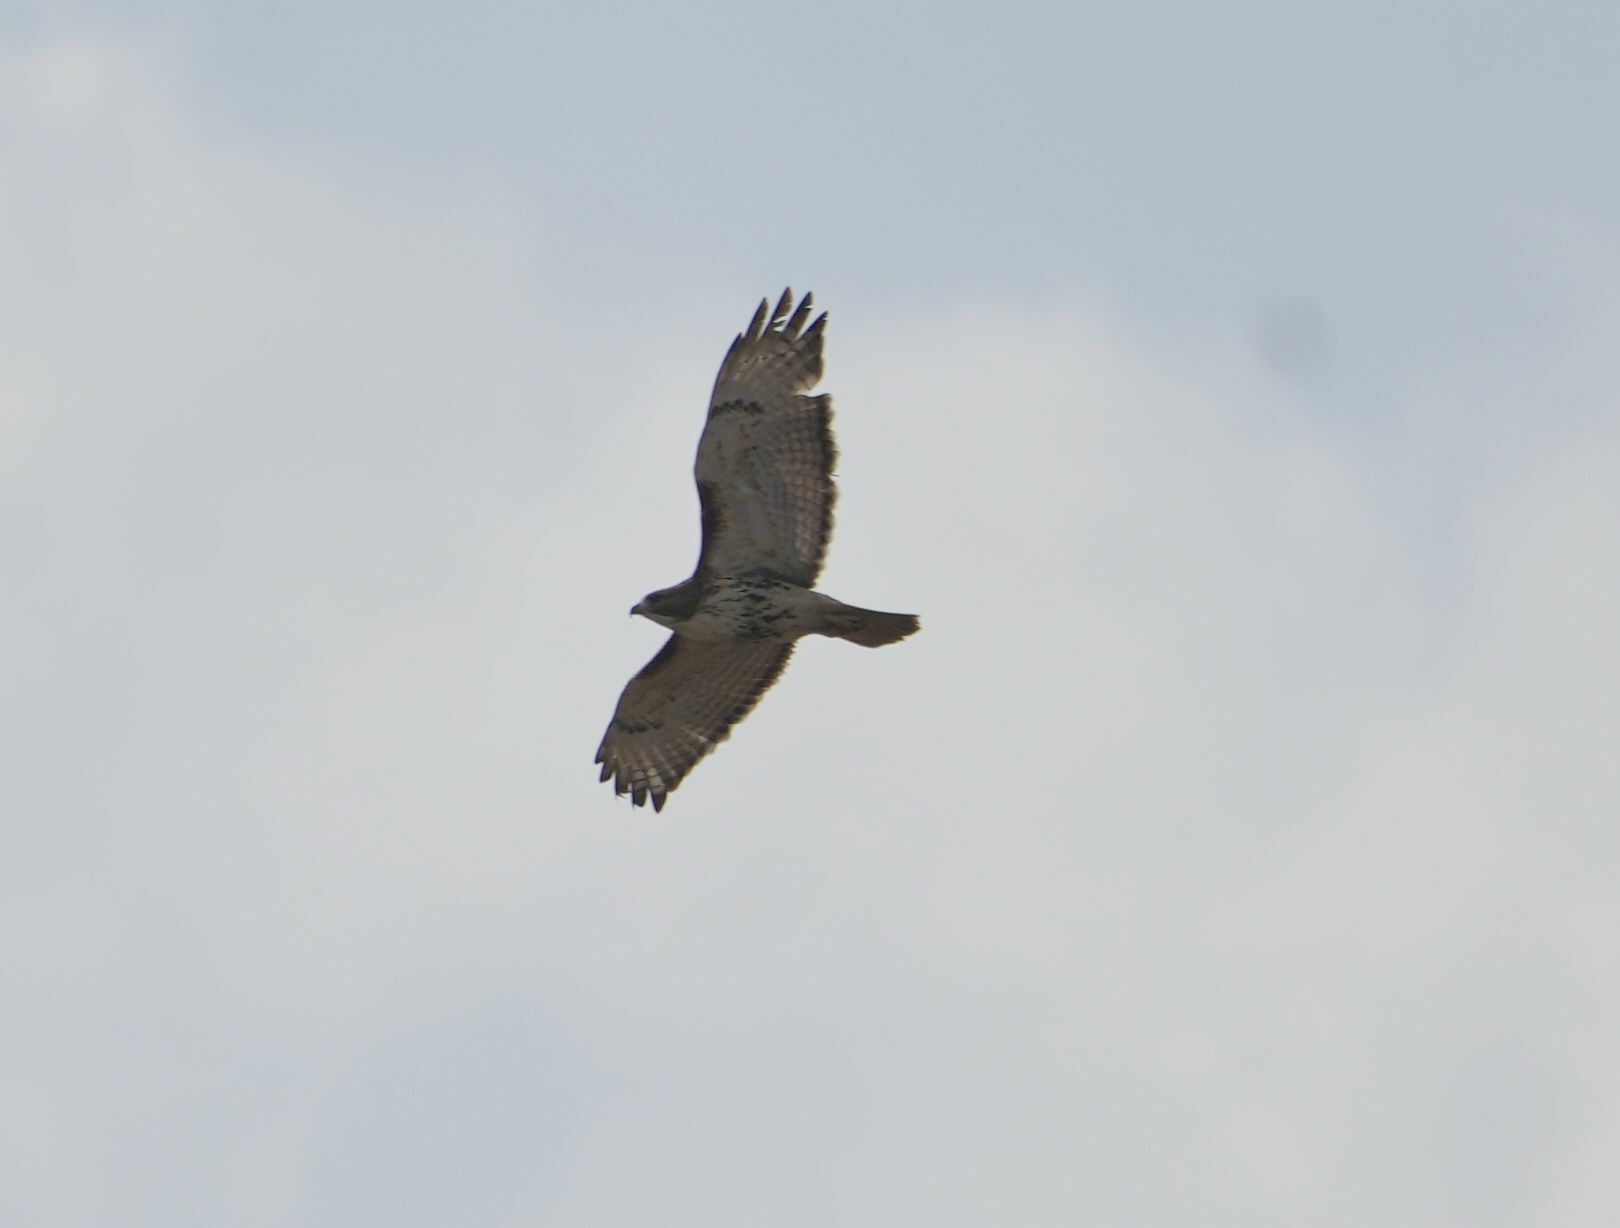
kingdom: Animalia
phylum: Chordata
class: Aves
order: Accipitriformes
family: Accipitridae
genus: Buteo
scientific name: Buteo jamaicensis
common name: Red-tailed hawk
